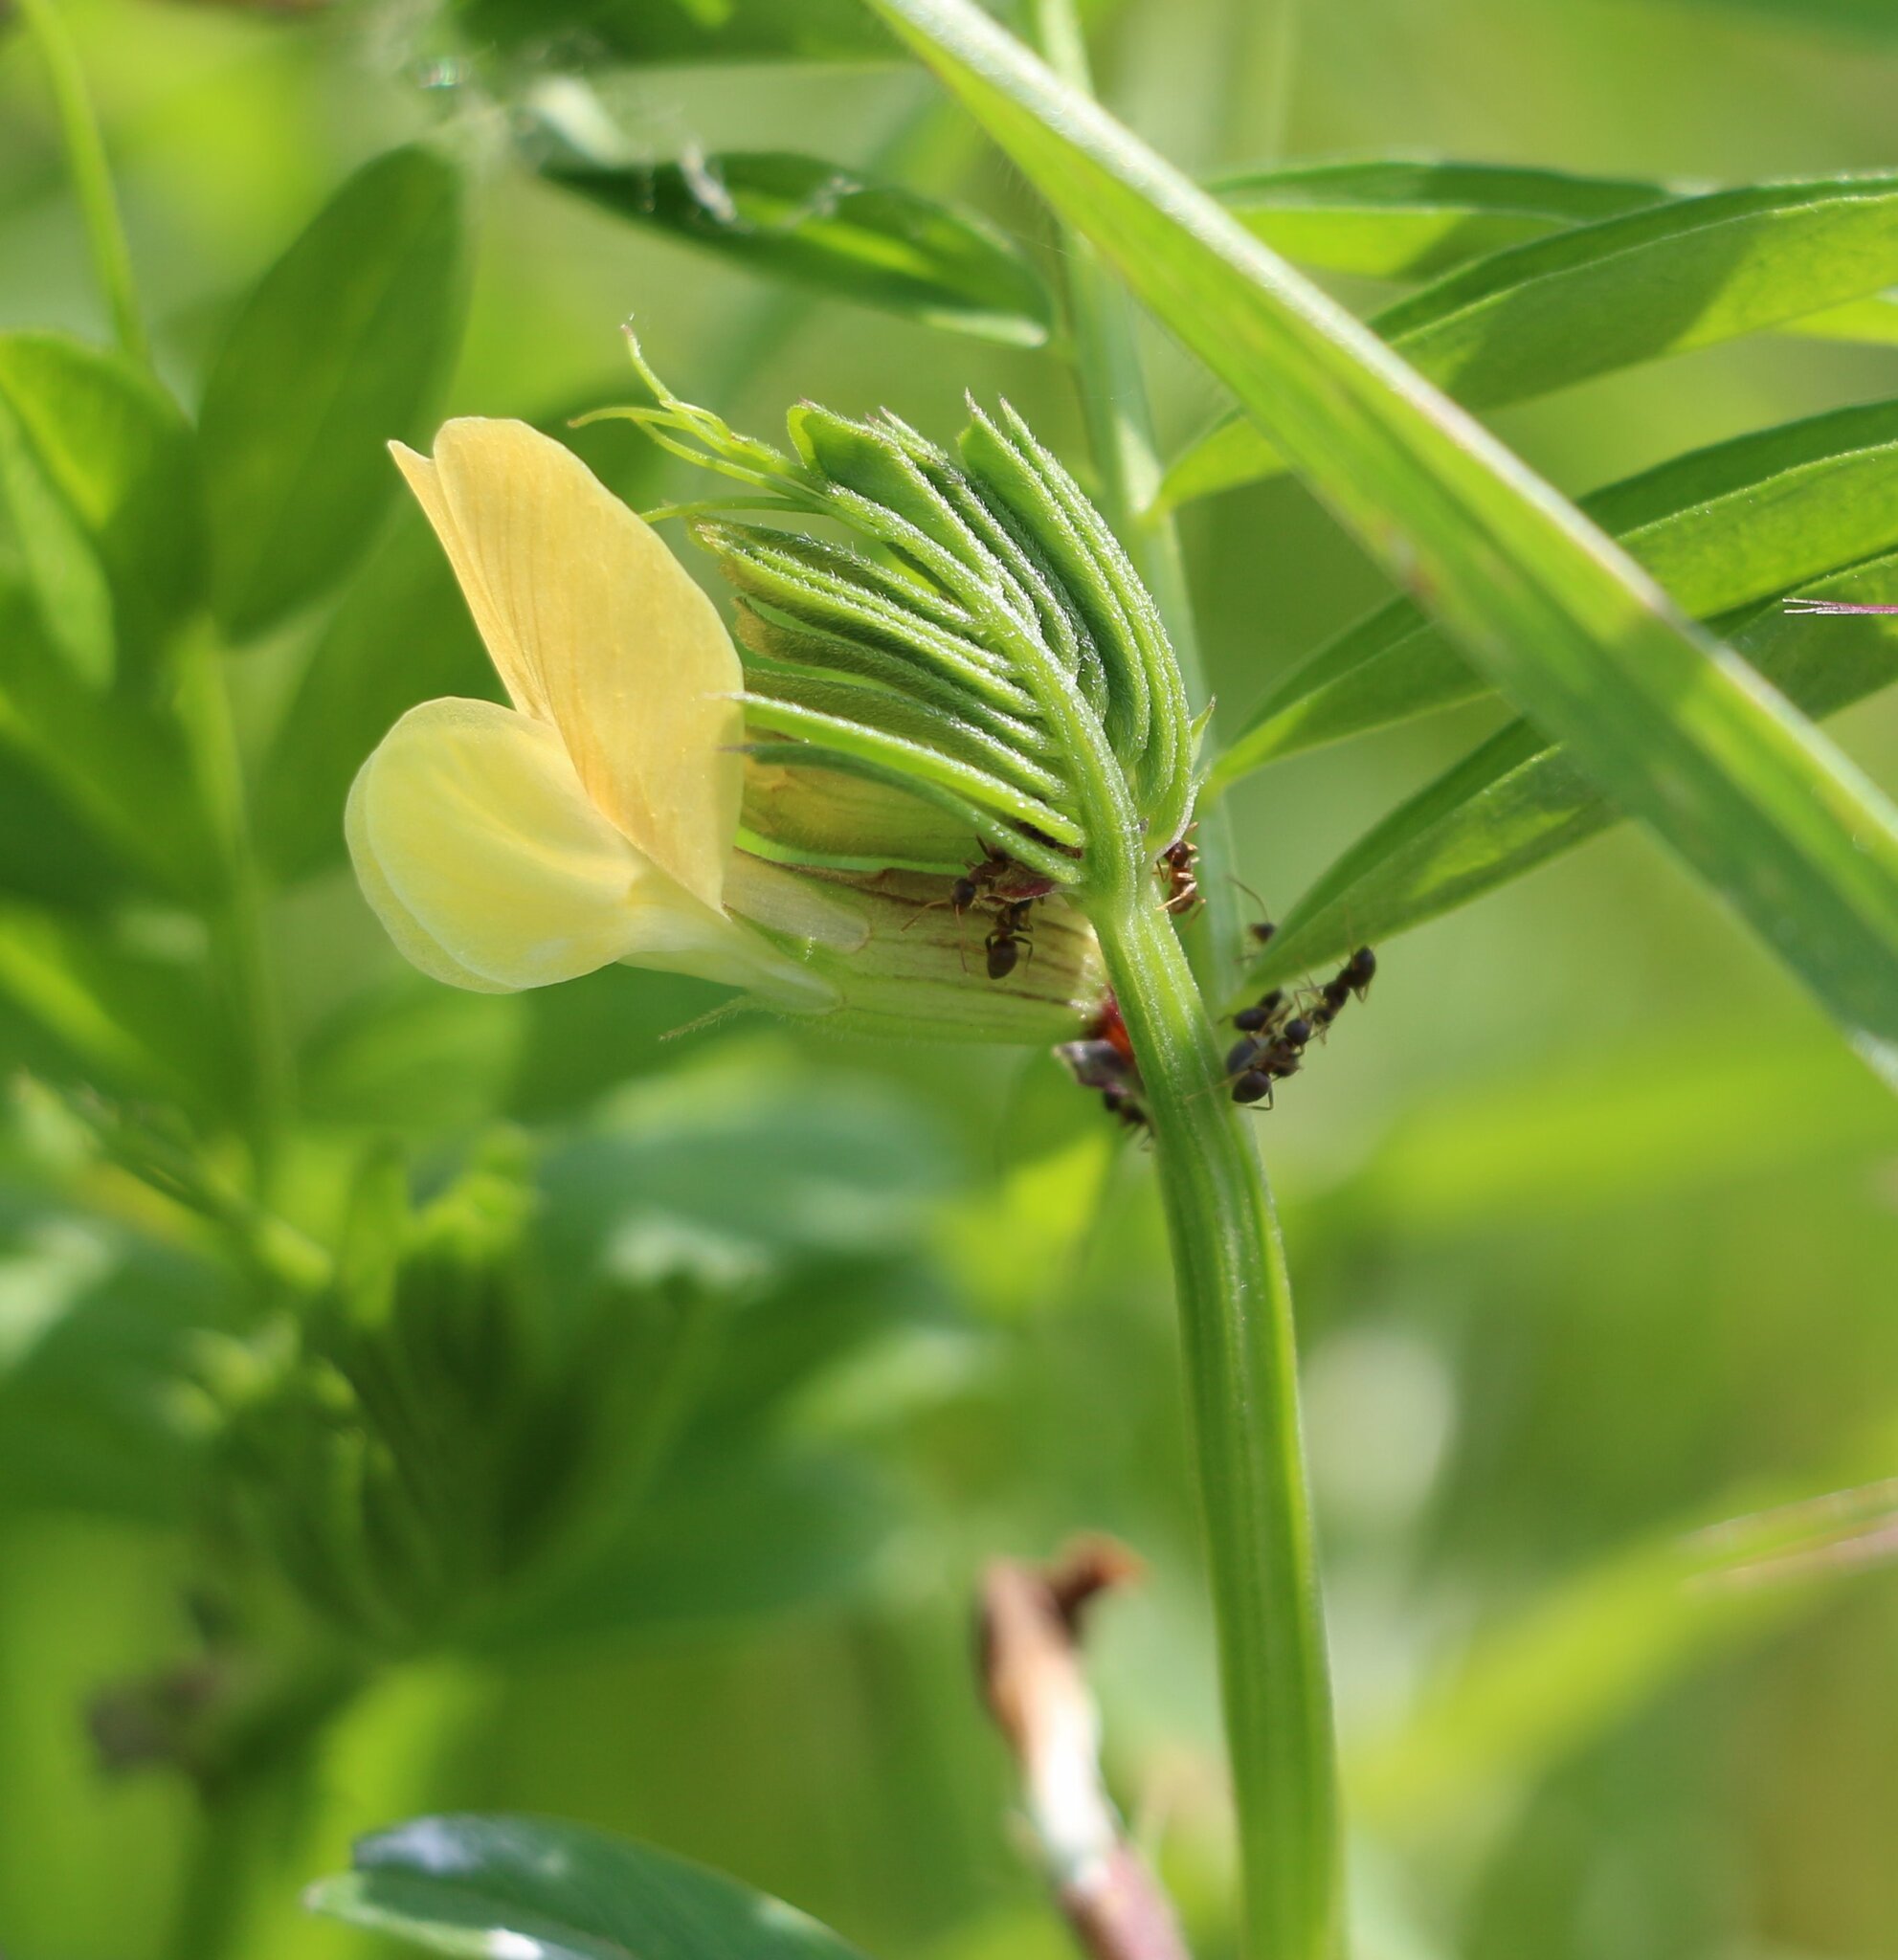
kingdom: Plantae
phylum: Tracheophyta
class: Magnoliopsida
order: Fabales
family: Fabaceae
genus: Vicia
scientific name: Vicia grandiflora
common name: Large yellow vetch
